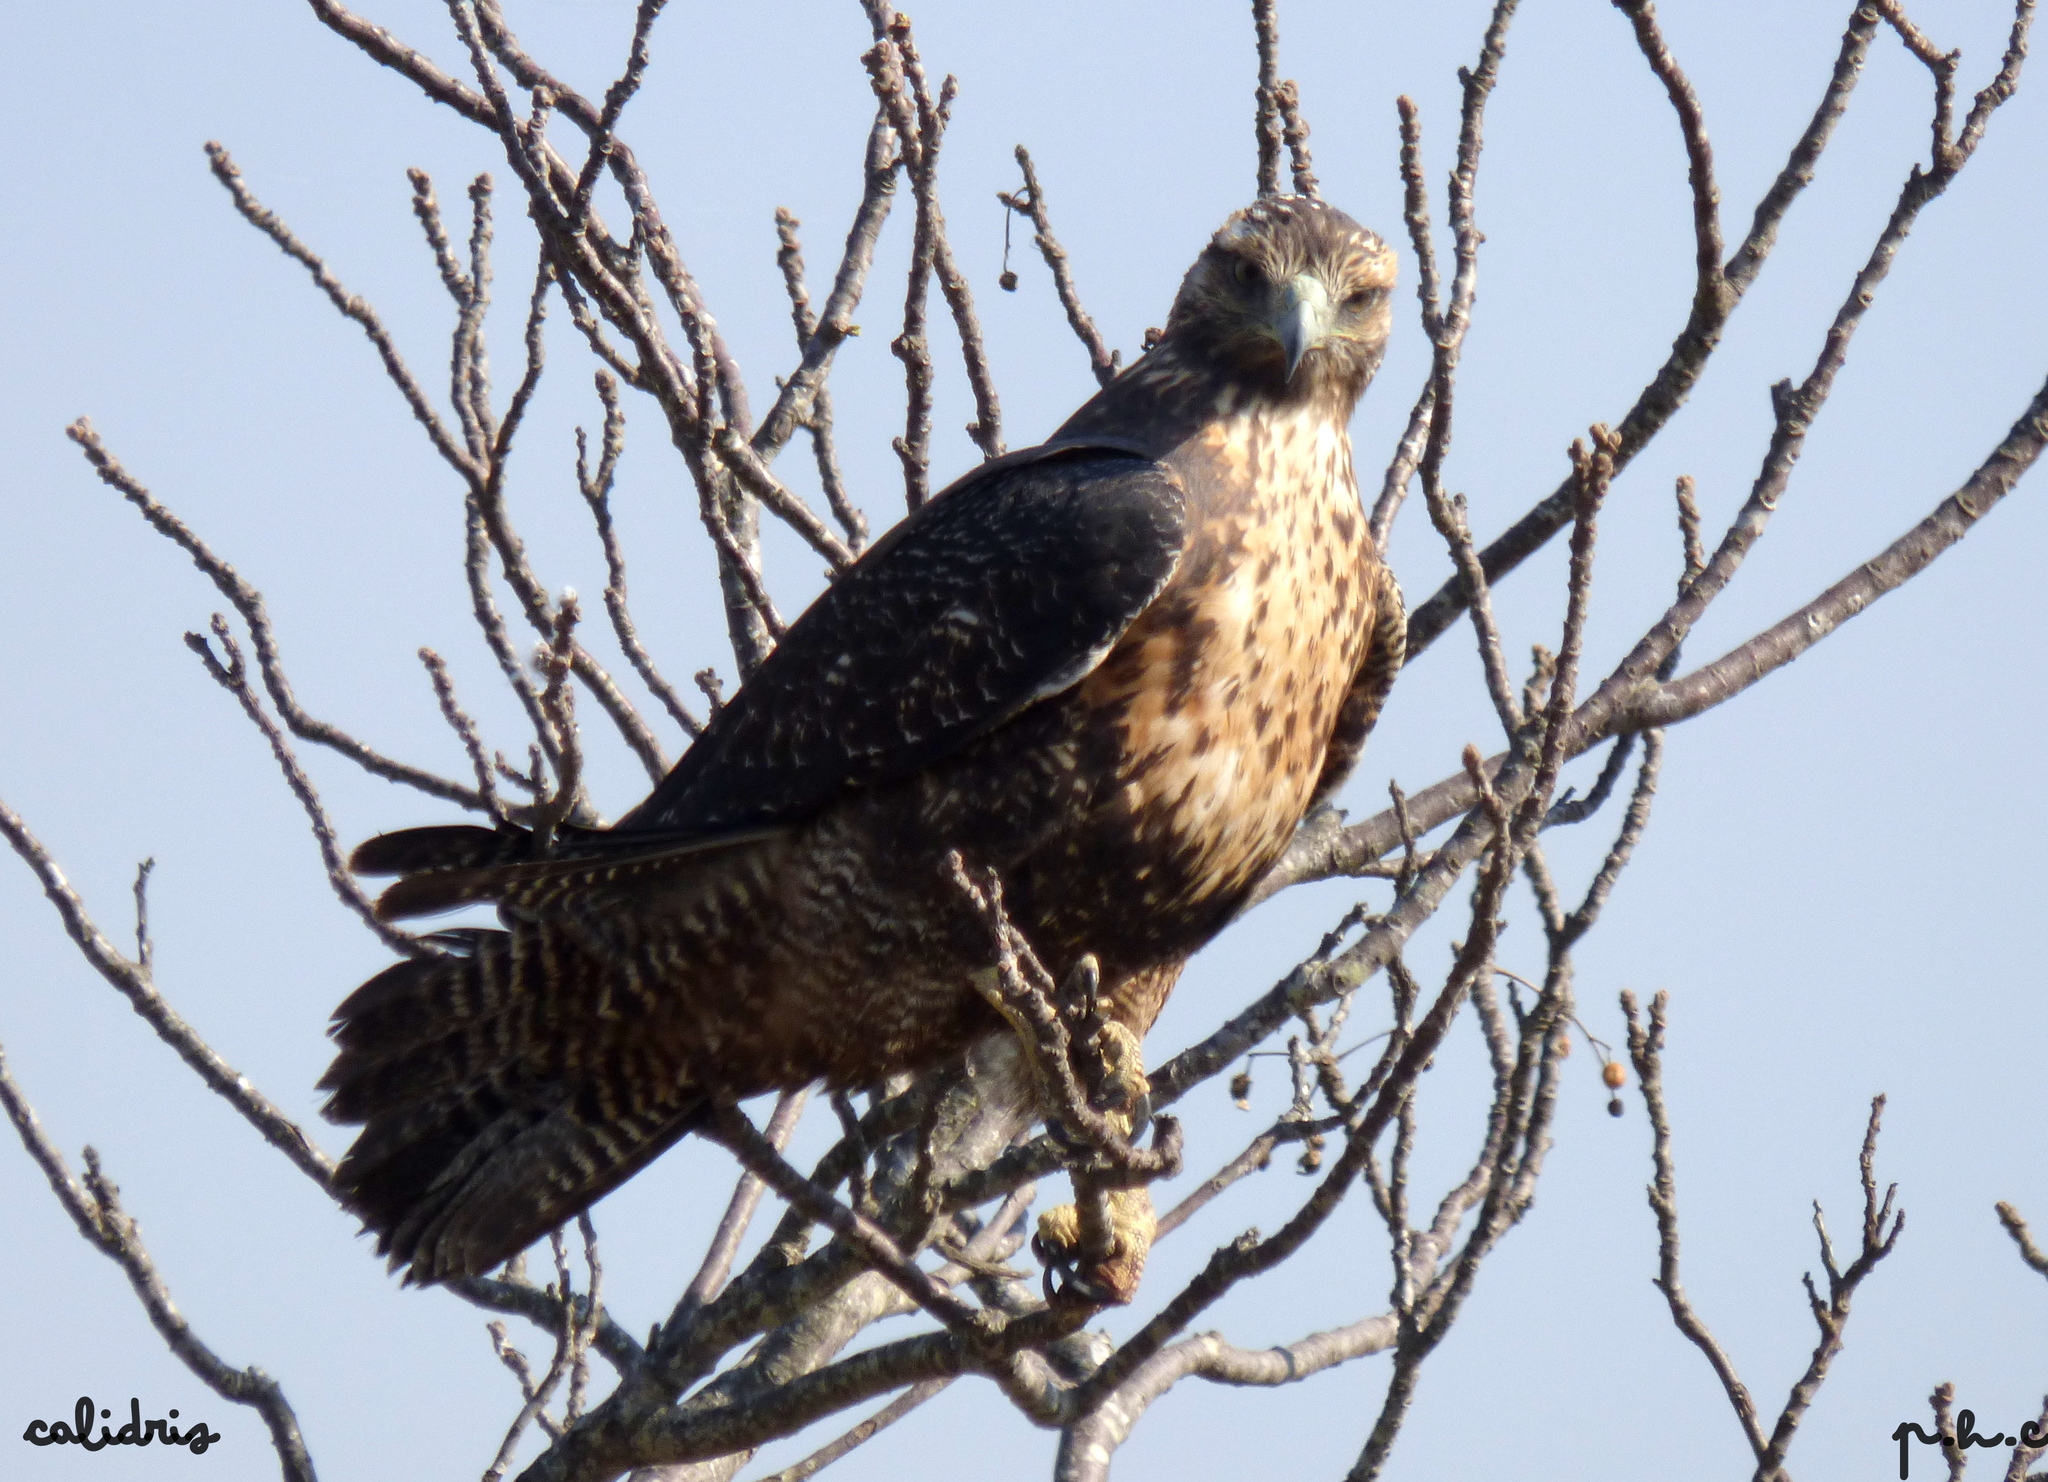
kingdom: Animalia
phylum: Chordata
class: Aves
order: Accipitriformes
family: Accipitridae
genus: Geranoaetus
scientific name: Geranoaetus melanoleucus
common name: Black-chested buzzard-eagle
